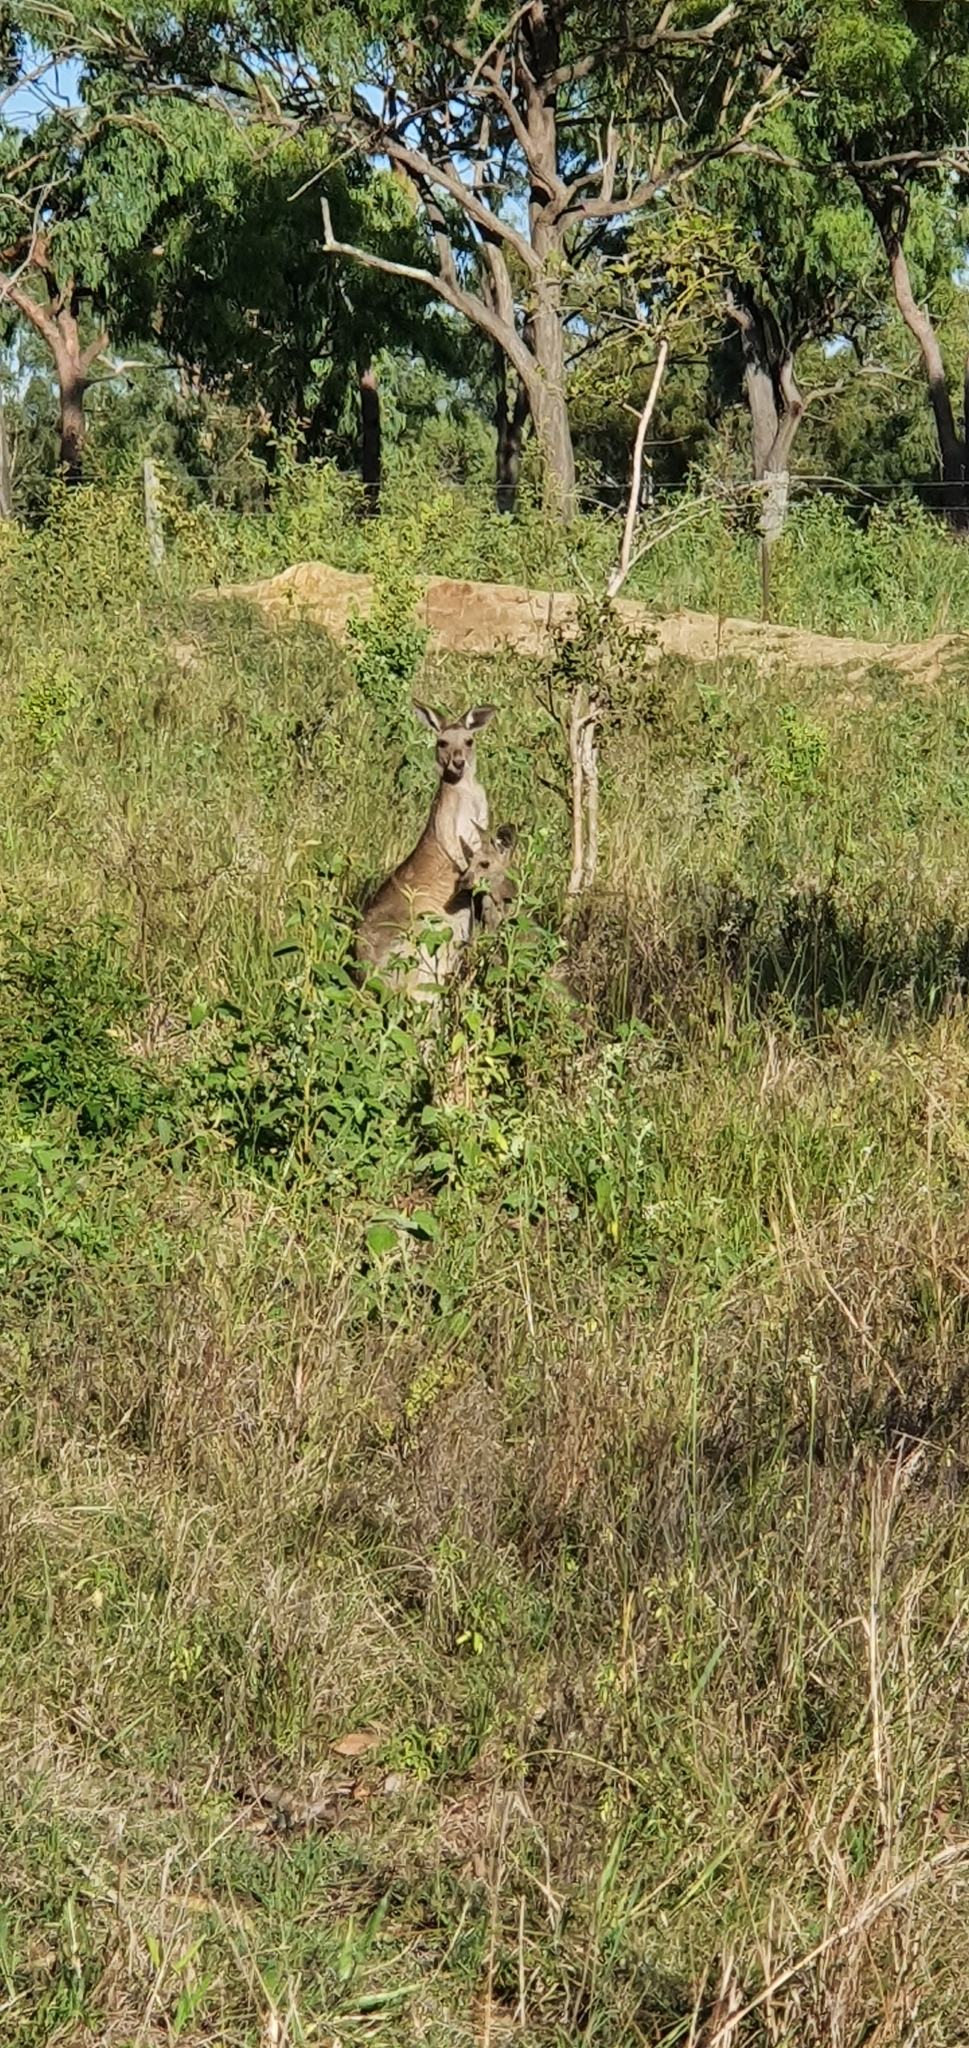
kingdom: Animalia
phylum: Chordata
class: Mammalia
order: Diprotodontia
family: Macropodidae
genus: Macropus
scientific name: Macropus giganteus
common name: Eastern grey kangaroo
